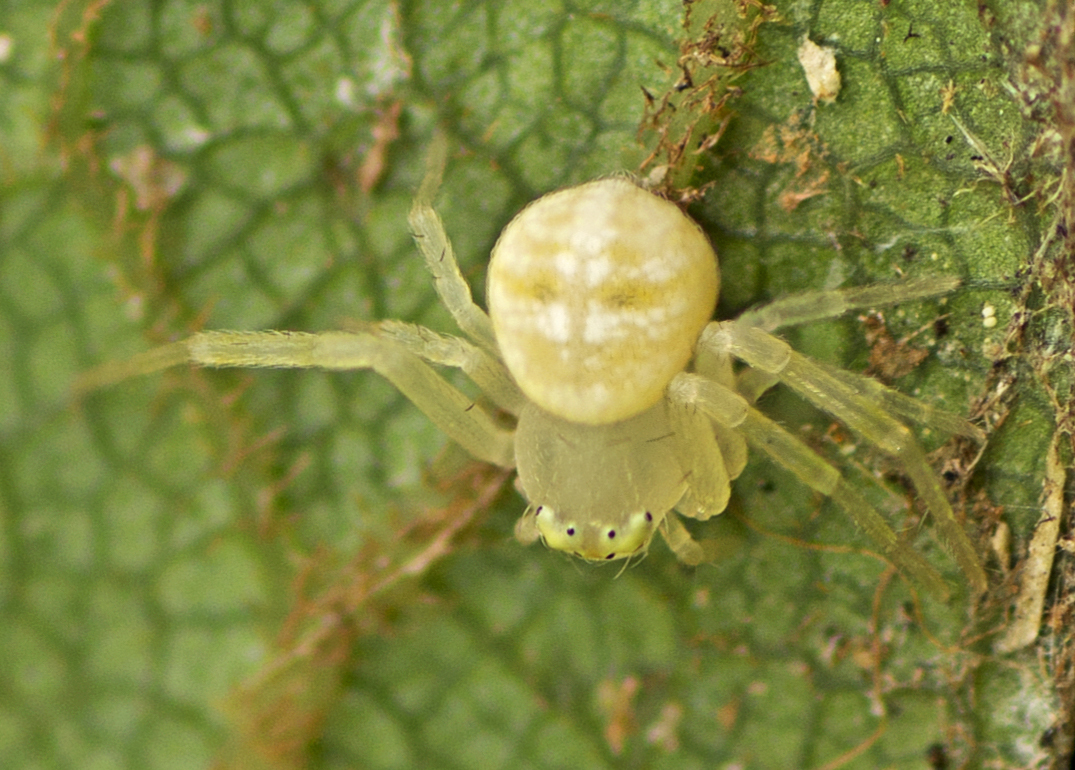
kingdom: Animalia
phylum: Arthropoda
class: Arachnida
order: Araneae
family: Thomisidae
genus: Zygometis
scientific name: Zygometis xanthogaster
